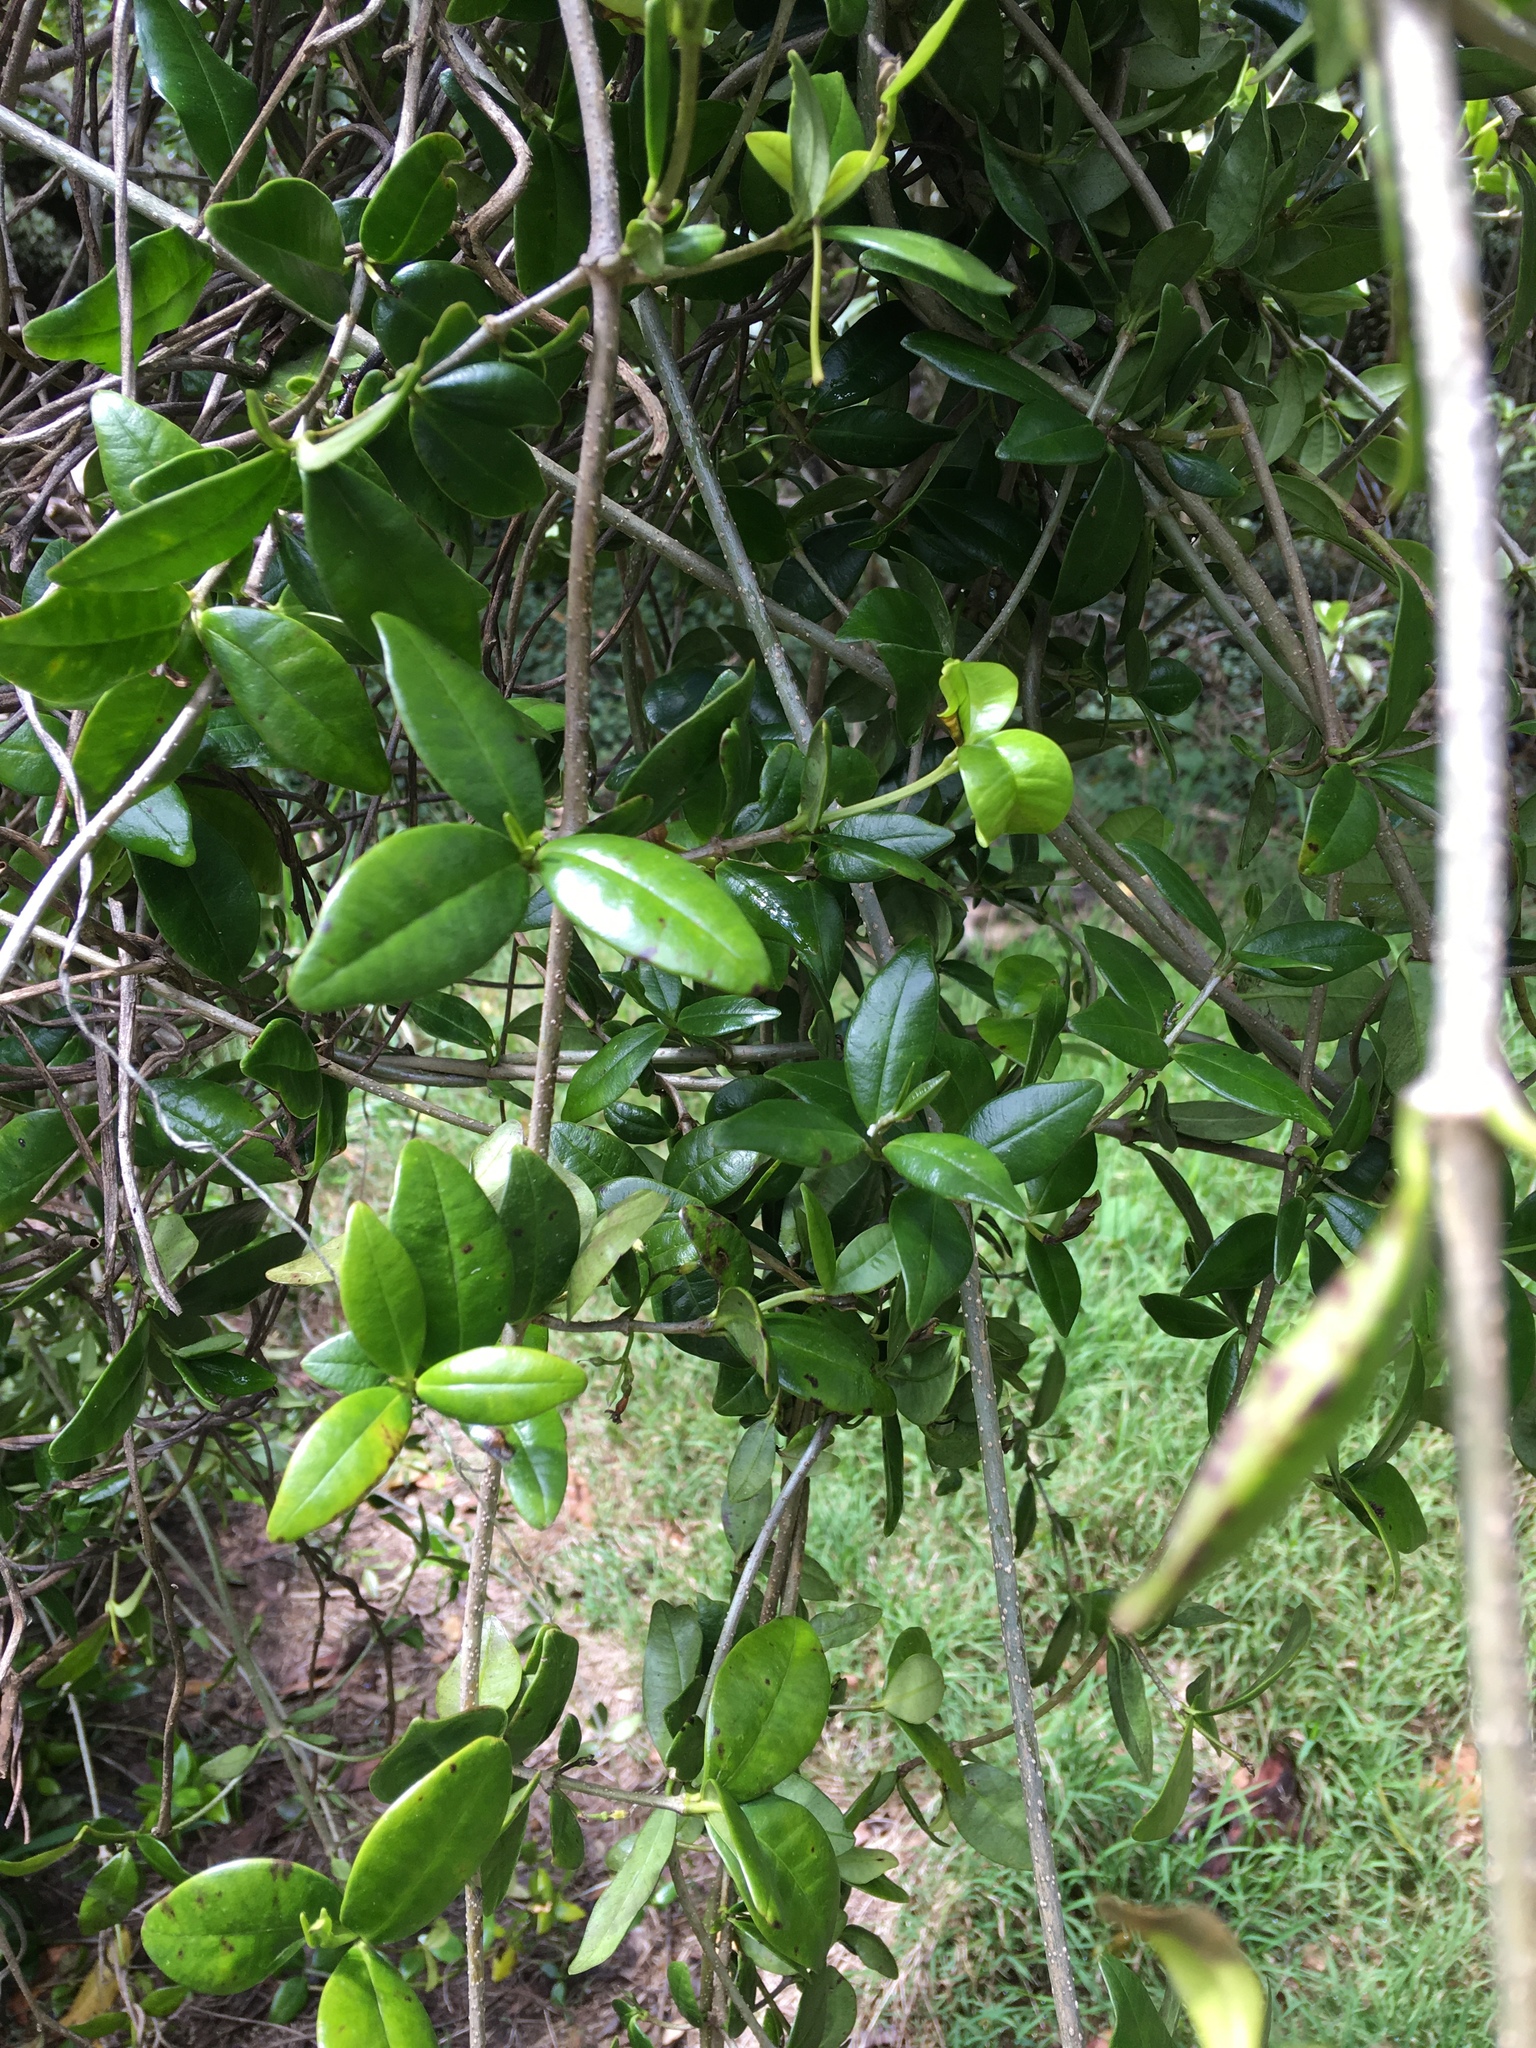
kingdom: Plantae
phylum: Tracheophyta
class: Magnoliopsida
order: Gentianales
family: Apocynaceae
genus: Alyxia
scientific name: Alyxia stellata
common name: Maile
